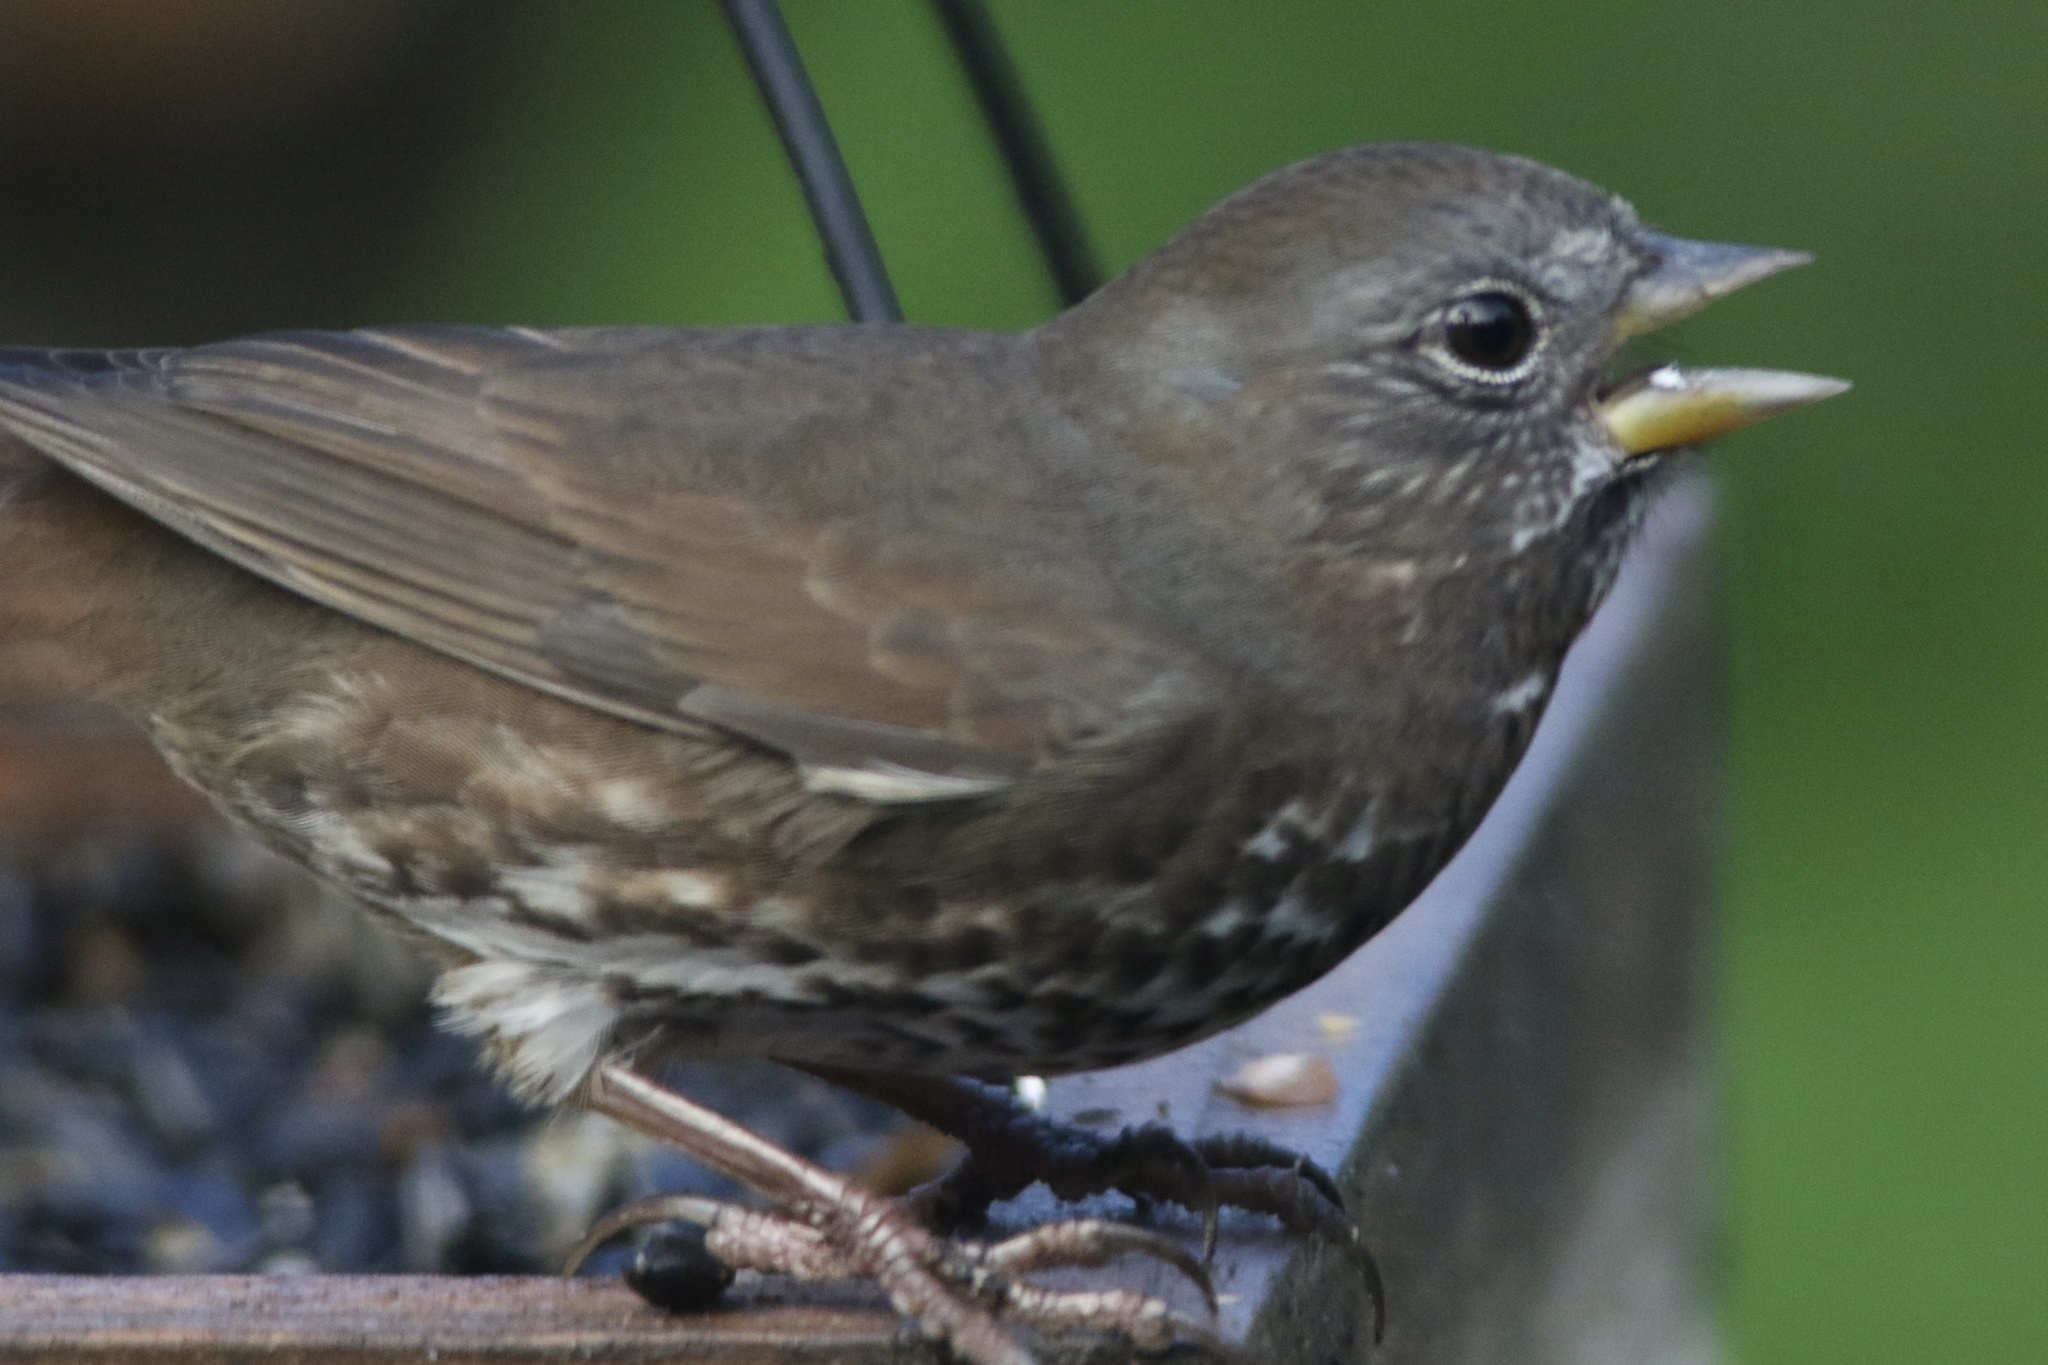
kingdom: Animalia
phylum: Chordata
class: Aves
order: Passeriformes
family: Passerellidae
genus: Passerella
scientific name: Passerella iliaca
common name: Fox sparrow
